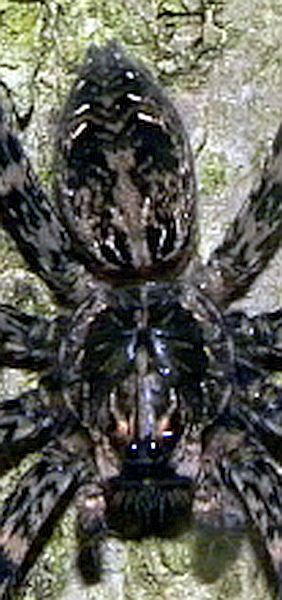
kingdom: Animalia
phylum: Arthropoda
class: Arachnida
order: Araneae
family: Pisauridae
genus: Dolomedes
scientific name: Dolomedes tenebrosus
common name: Dark fishing spider
